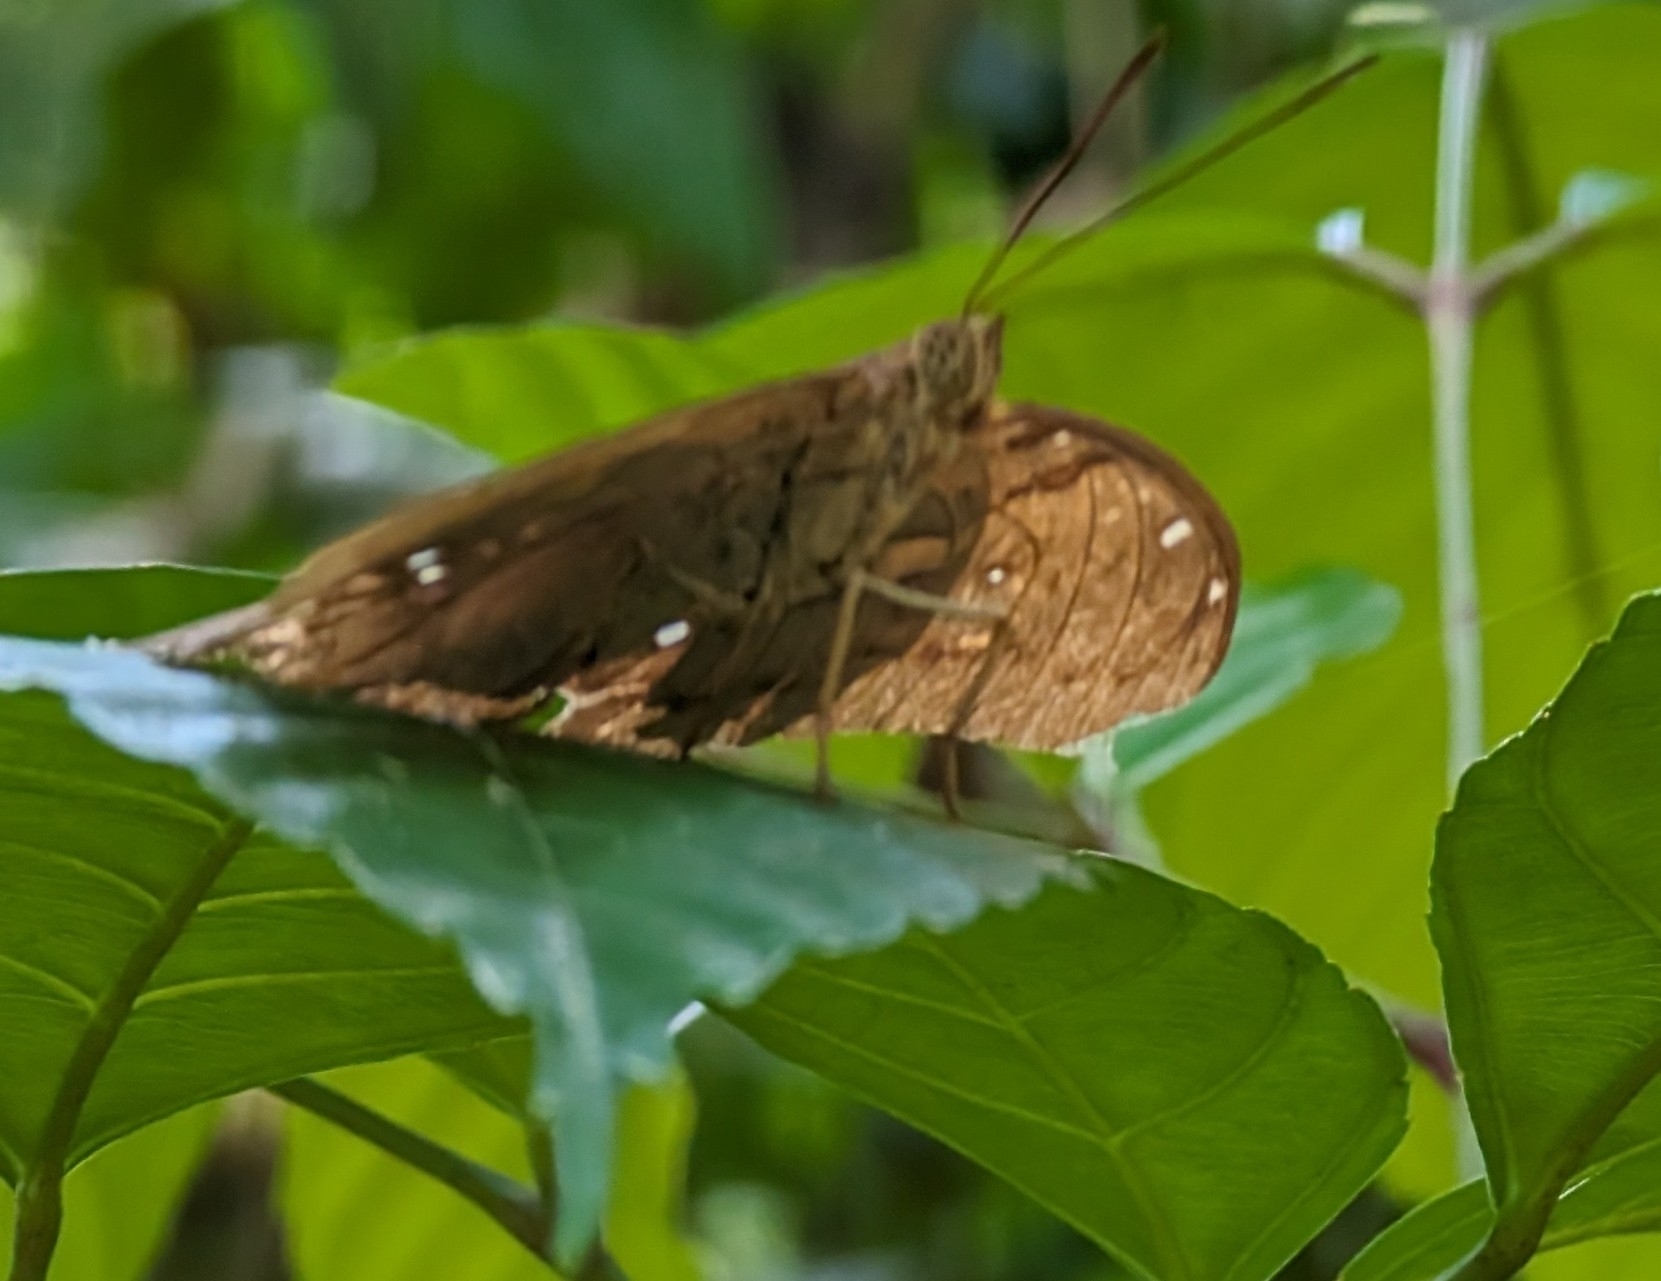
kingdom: Animalia
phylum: Arthropoda
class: Insecta
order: Lepidoptera
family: Nymphalidae
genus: Euthalia
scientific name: Euthalia Bassarona dunya
